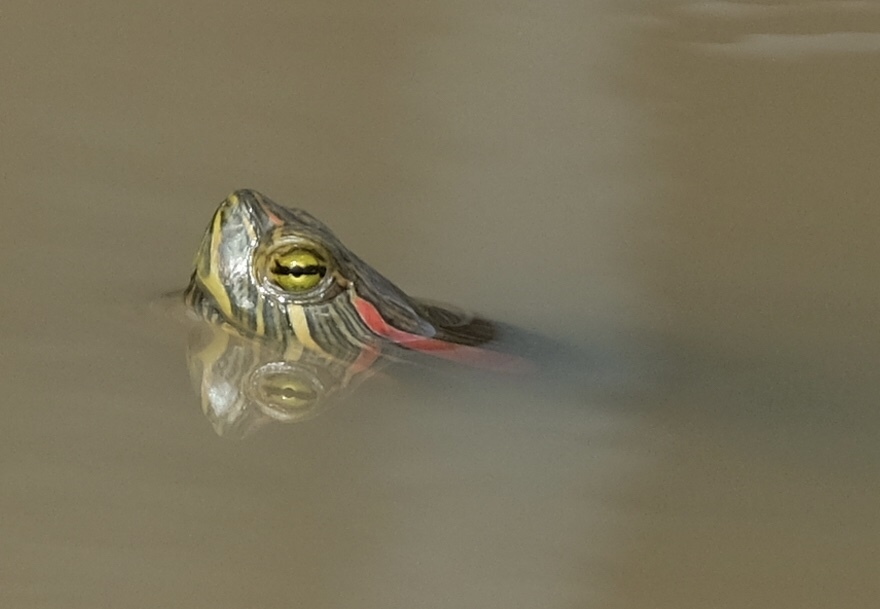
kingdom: Animalia
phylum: Chordata
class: Testudines
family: Emydidae
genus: Trachemys
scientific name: Trachemys scripta
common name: Slider
